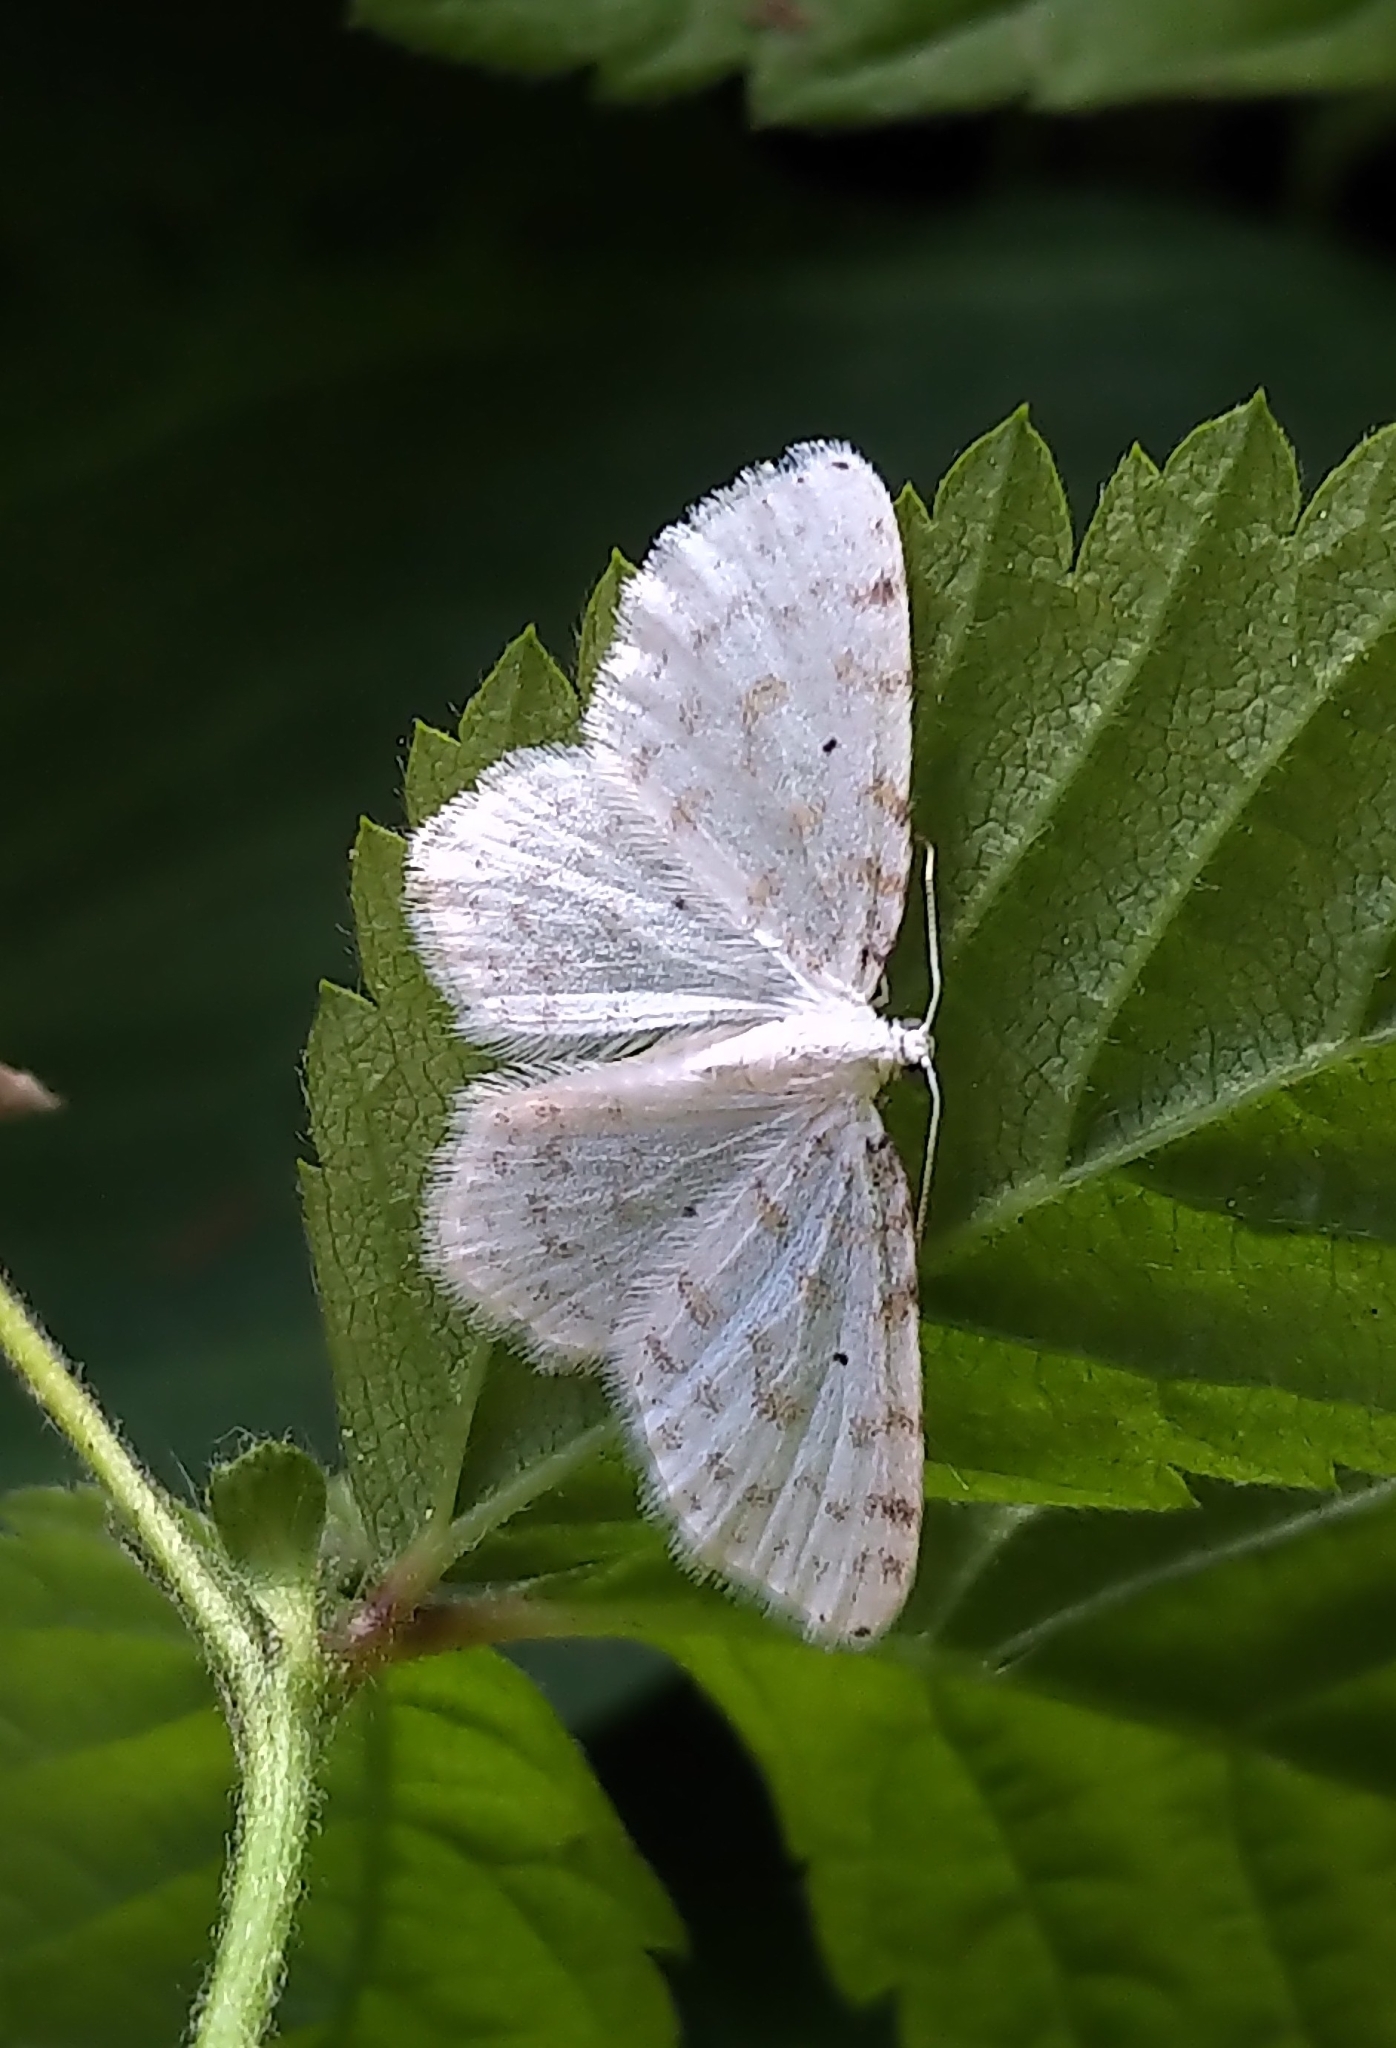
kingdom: Animalia
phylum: Arthropoda
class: Insecta
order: Lepidoptera
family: Geometridae
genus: Hydrelia
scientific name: Hydrelia albifera
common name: Fragile white carpet
